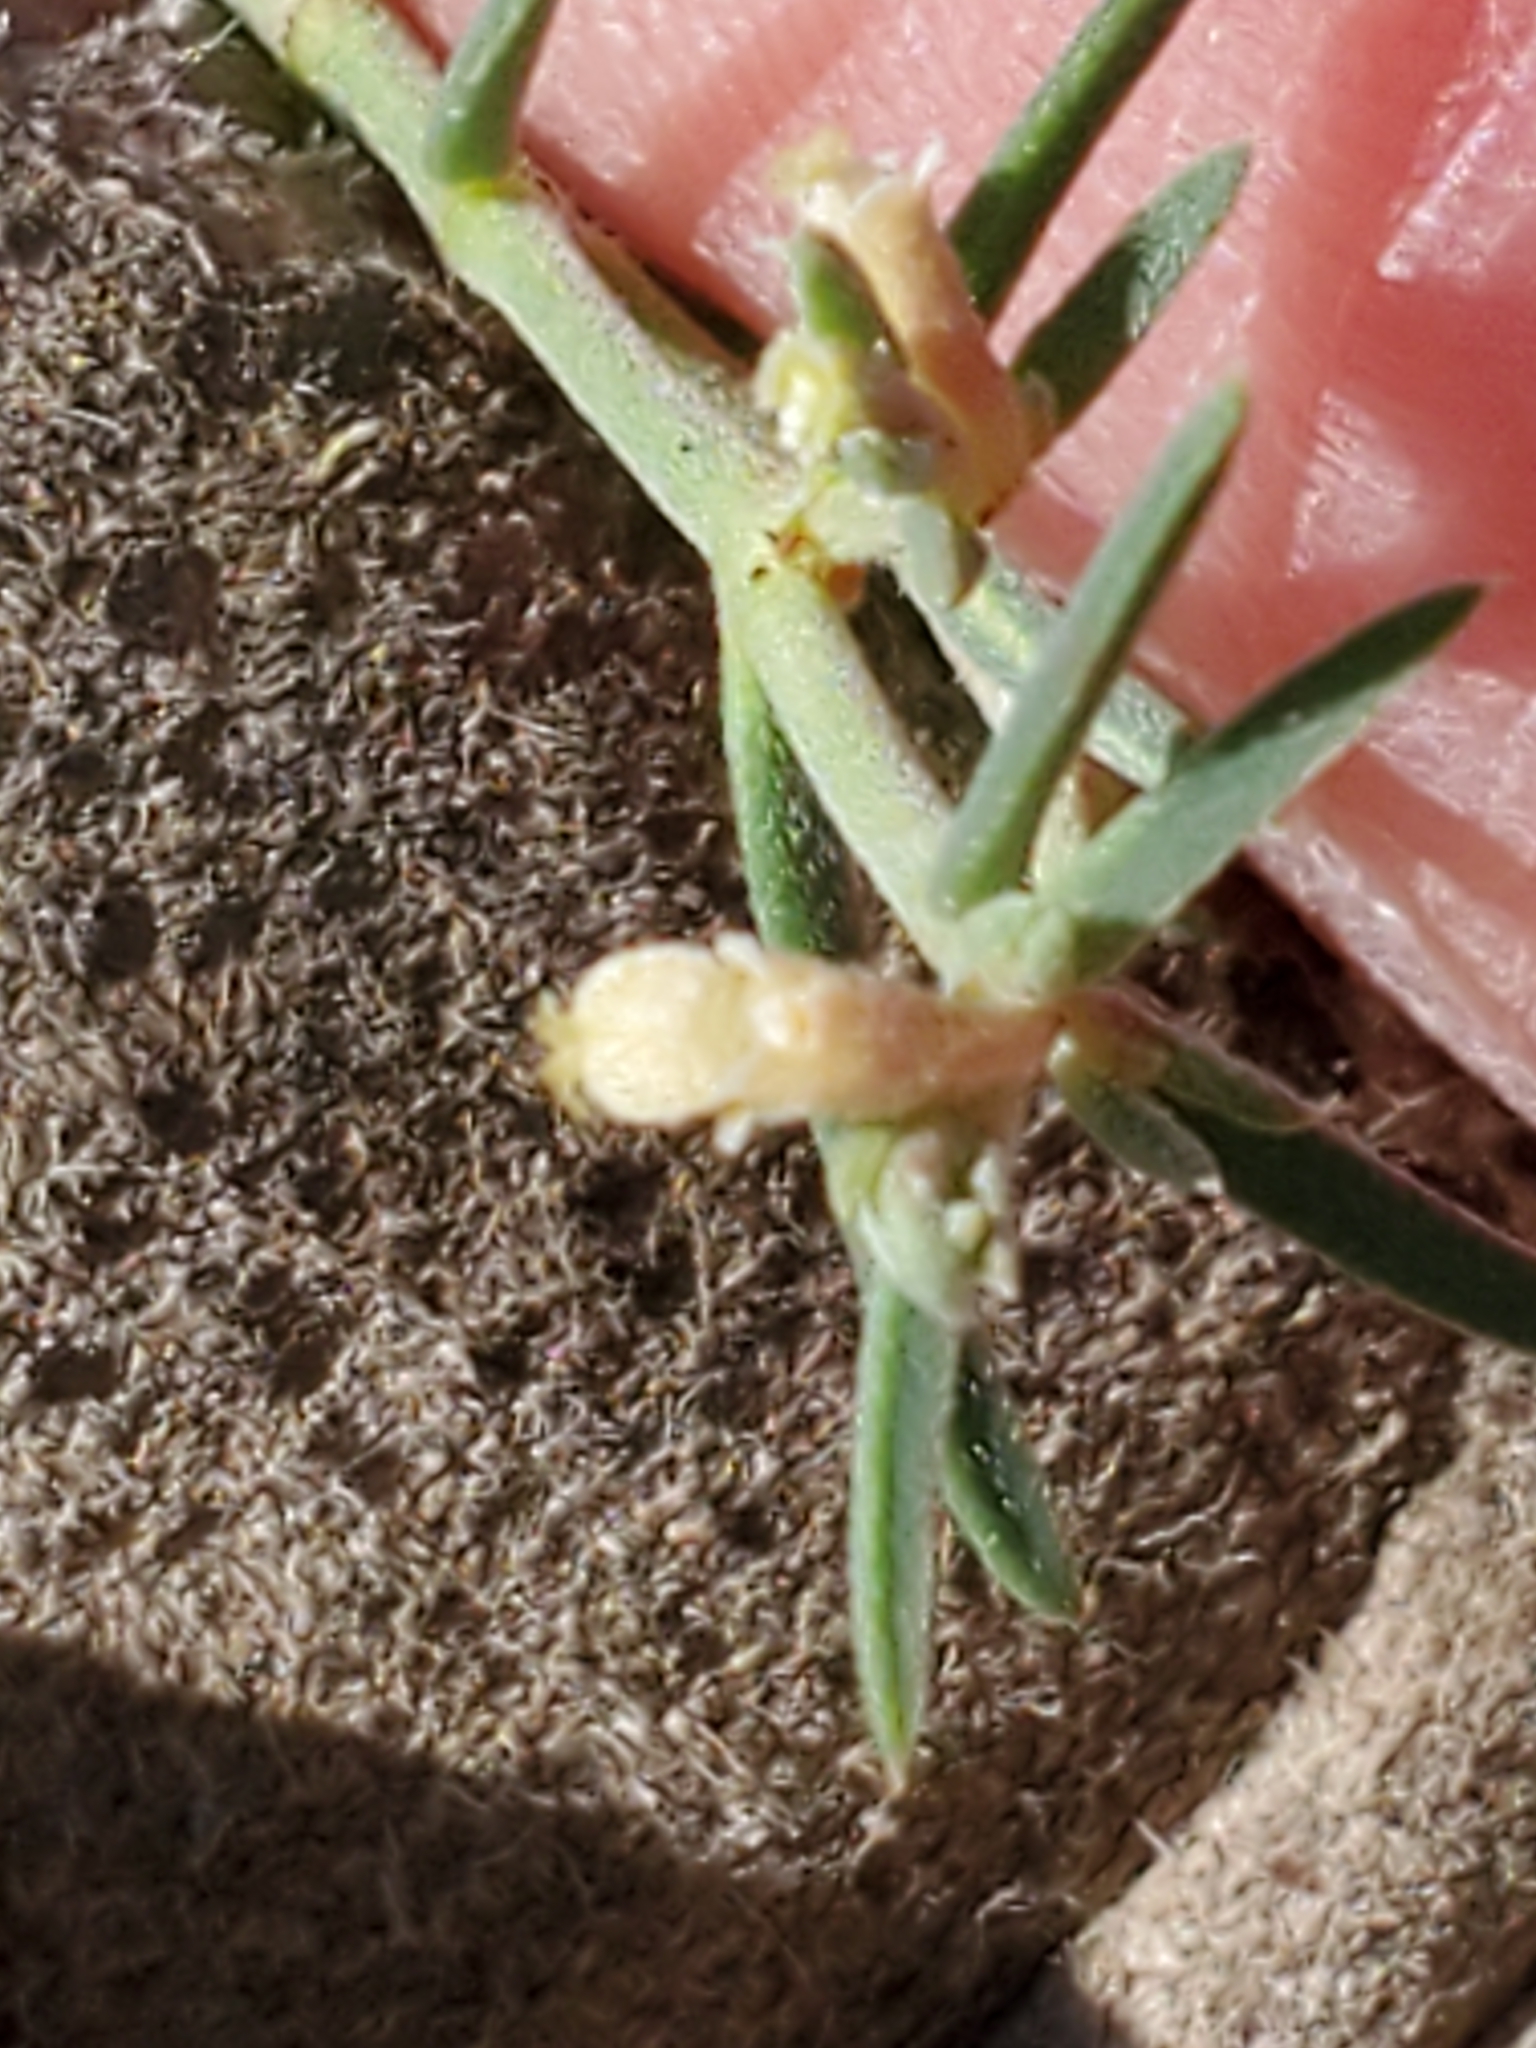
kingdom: Plantae
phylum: Tracheophyta
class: Magnoliopsida
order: Malpighiales
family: Euphorbiaceae
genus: Euphorbia
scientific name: Euphorbia angusta
